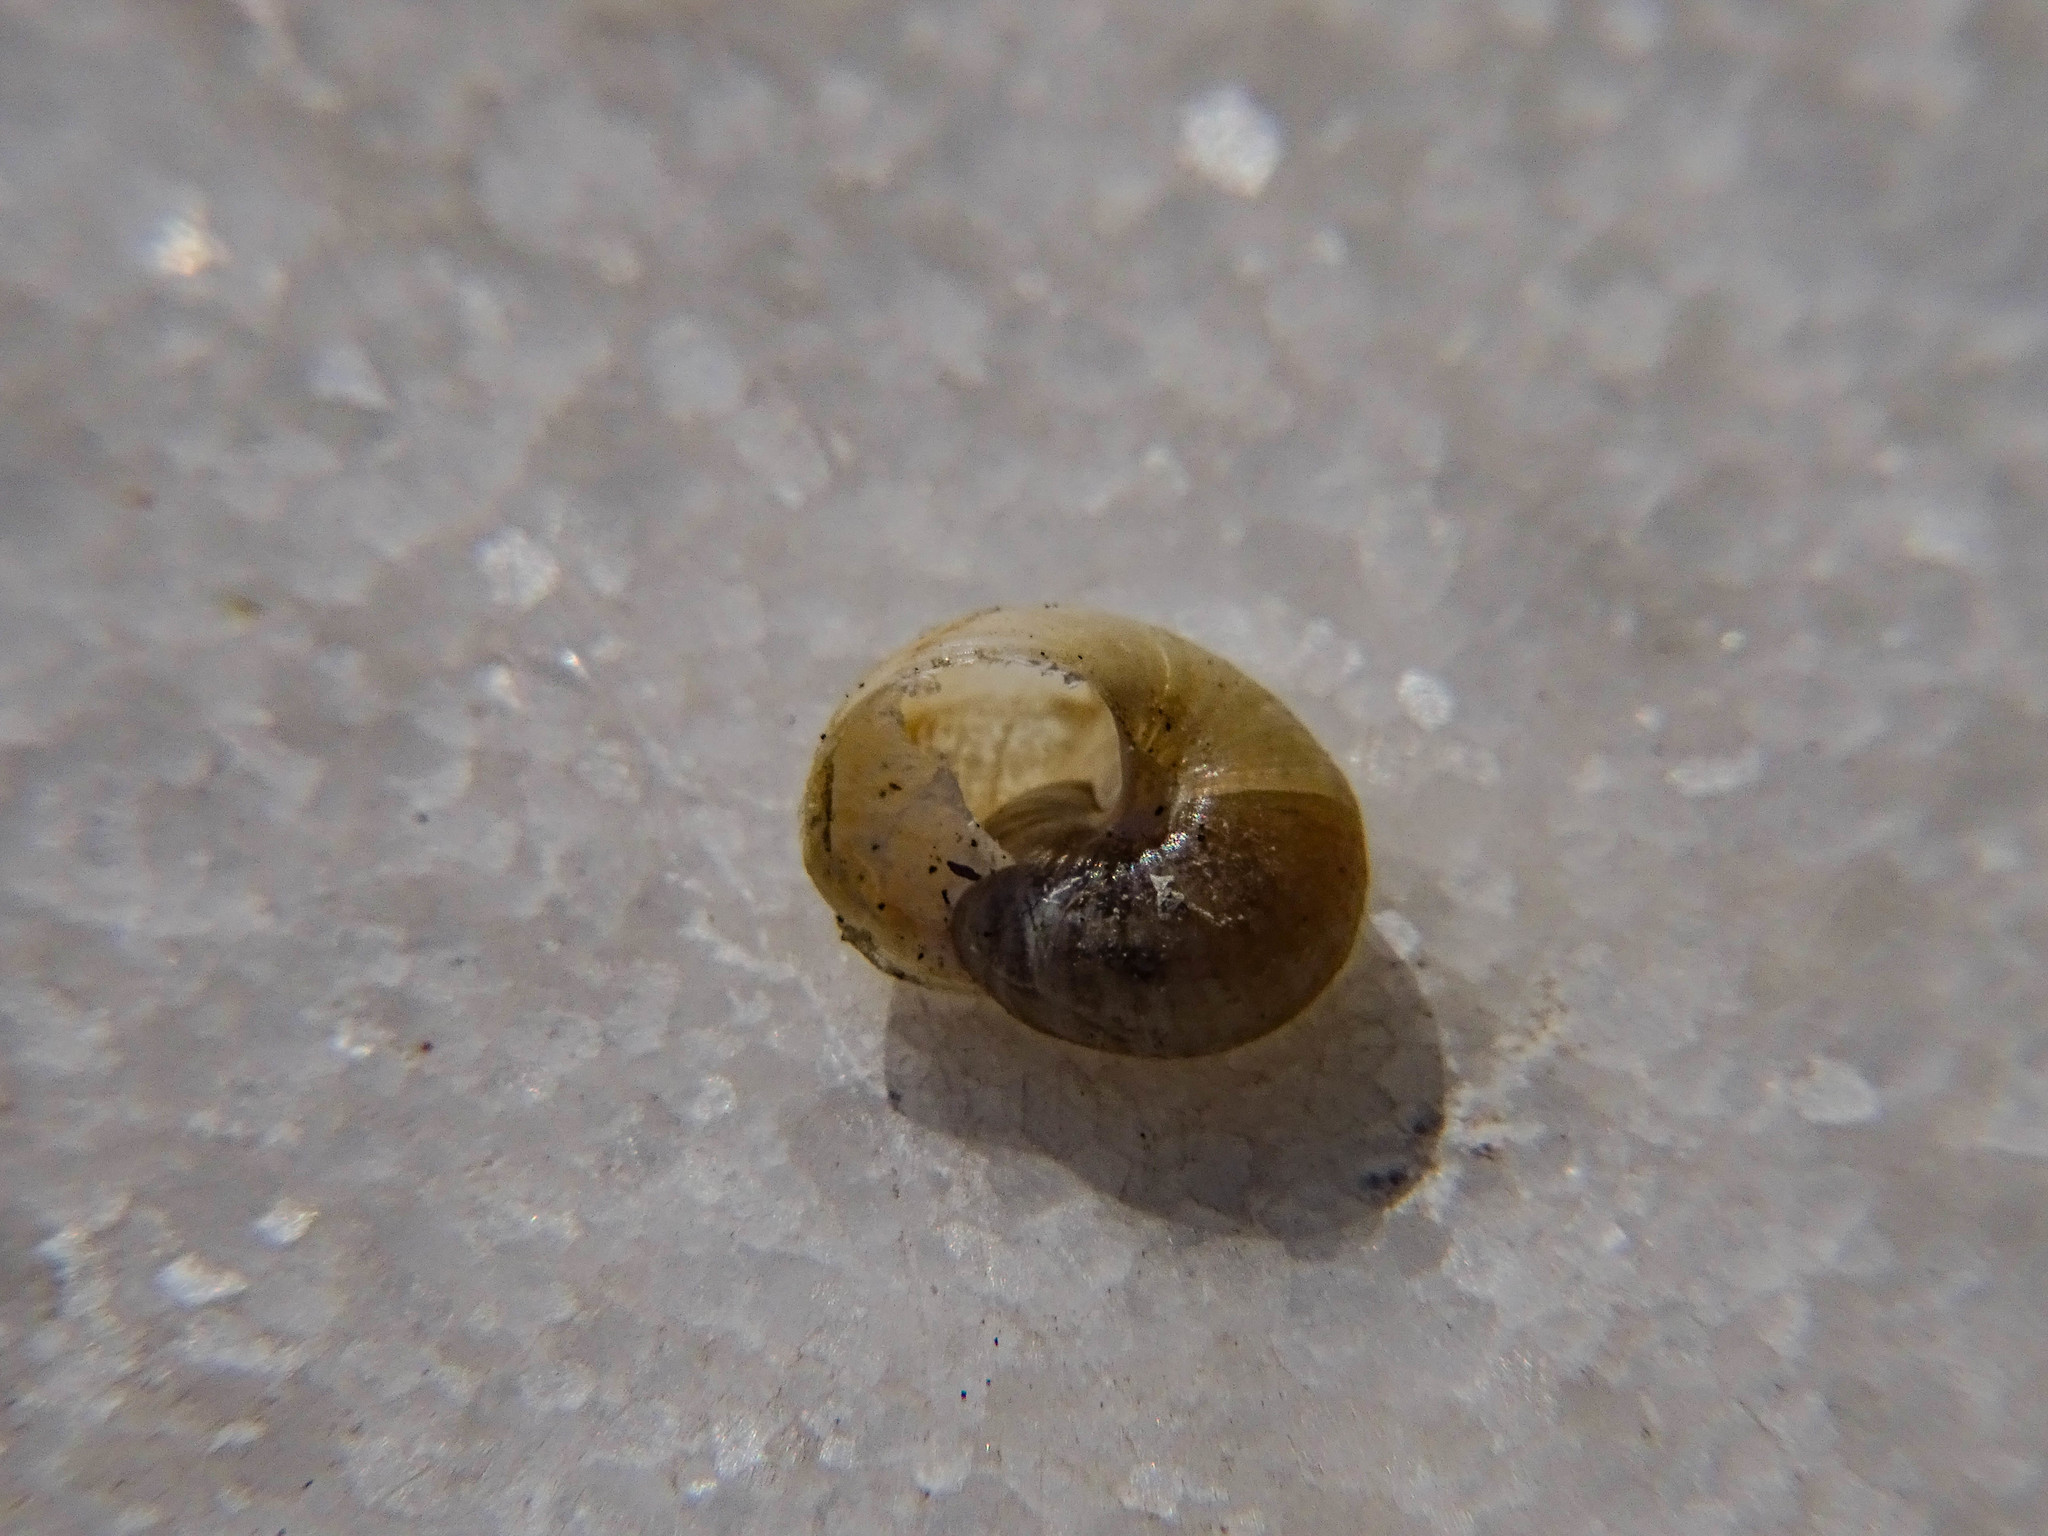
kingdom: Animalia
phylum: Mollusca
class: Gastropoda
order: Stylommatophora
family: Helicidae
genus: Eobania
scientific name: Eobania vermiculata
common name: Chocolateband snail
